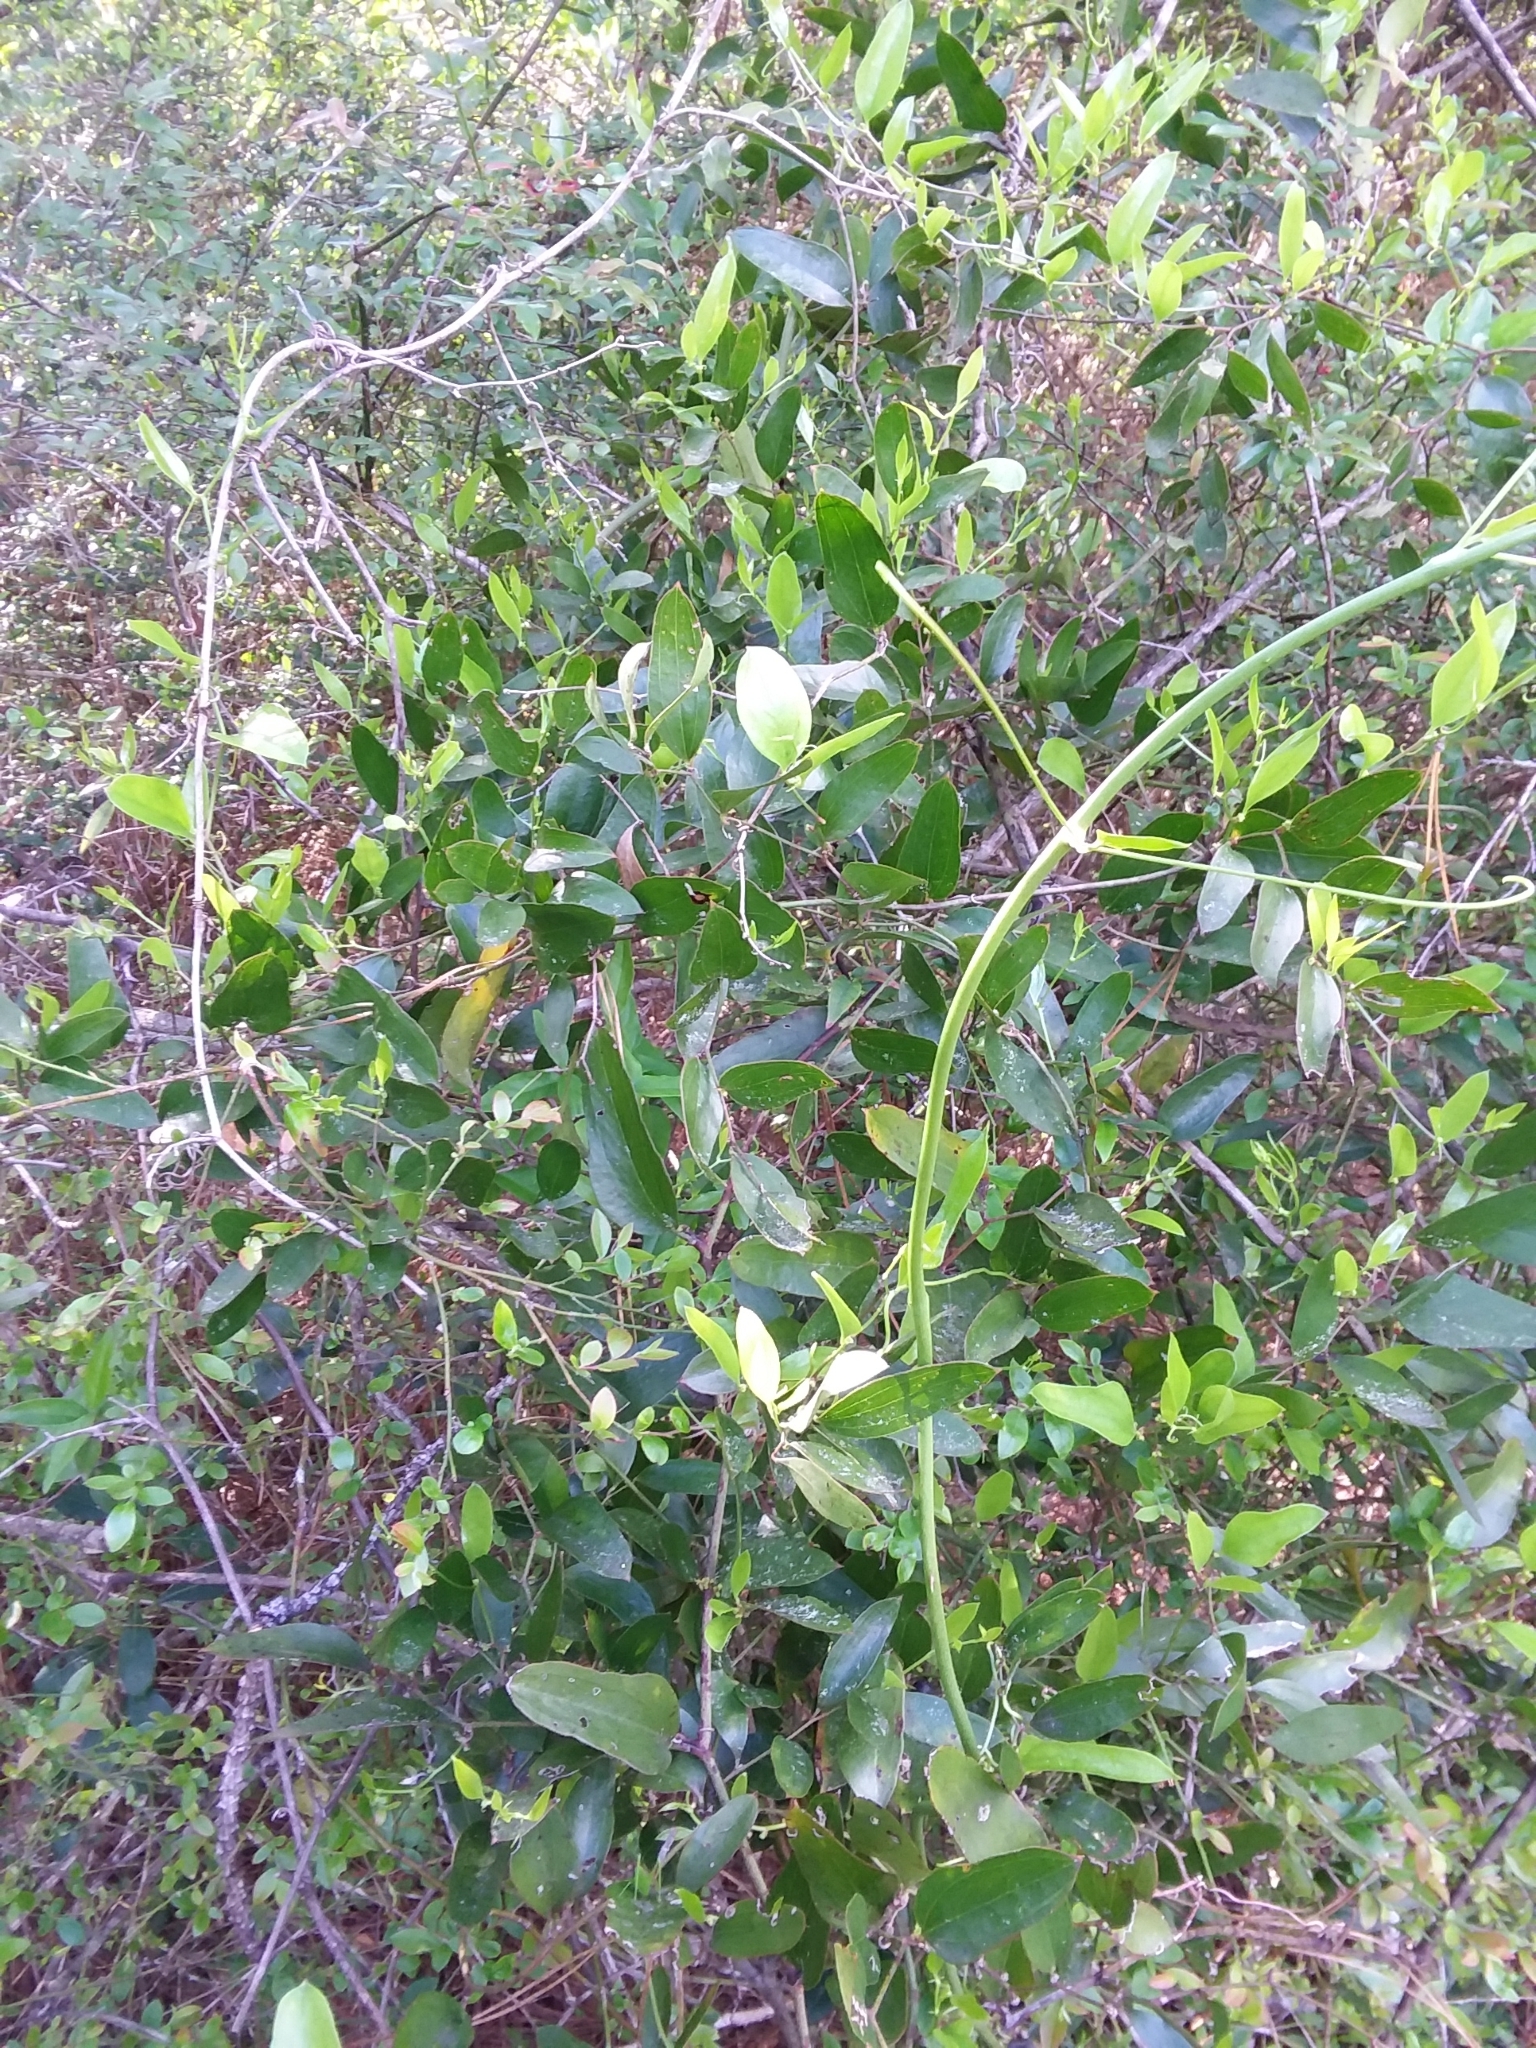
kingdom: Plantae
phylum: Tracheophyta
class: Liliopsida
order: Liliales
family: Smilacaceae
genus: Smilax
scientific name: Smilax auriculata
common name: Wild bamboo
